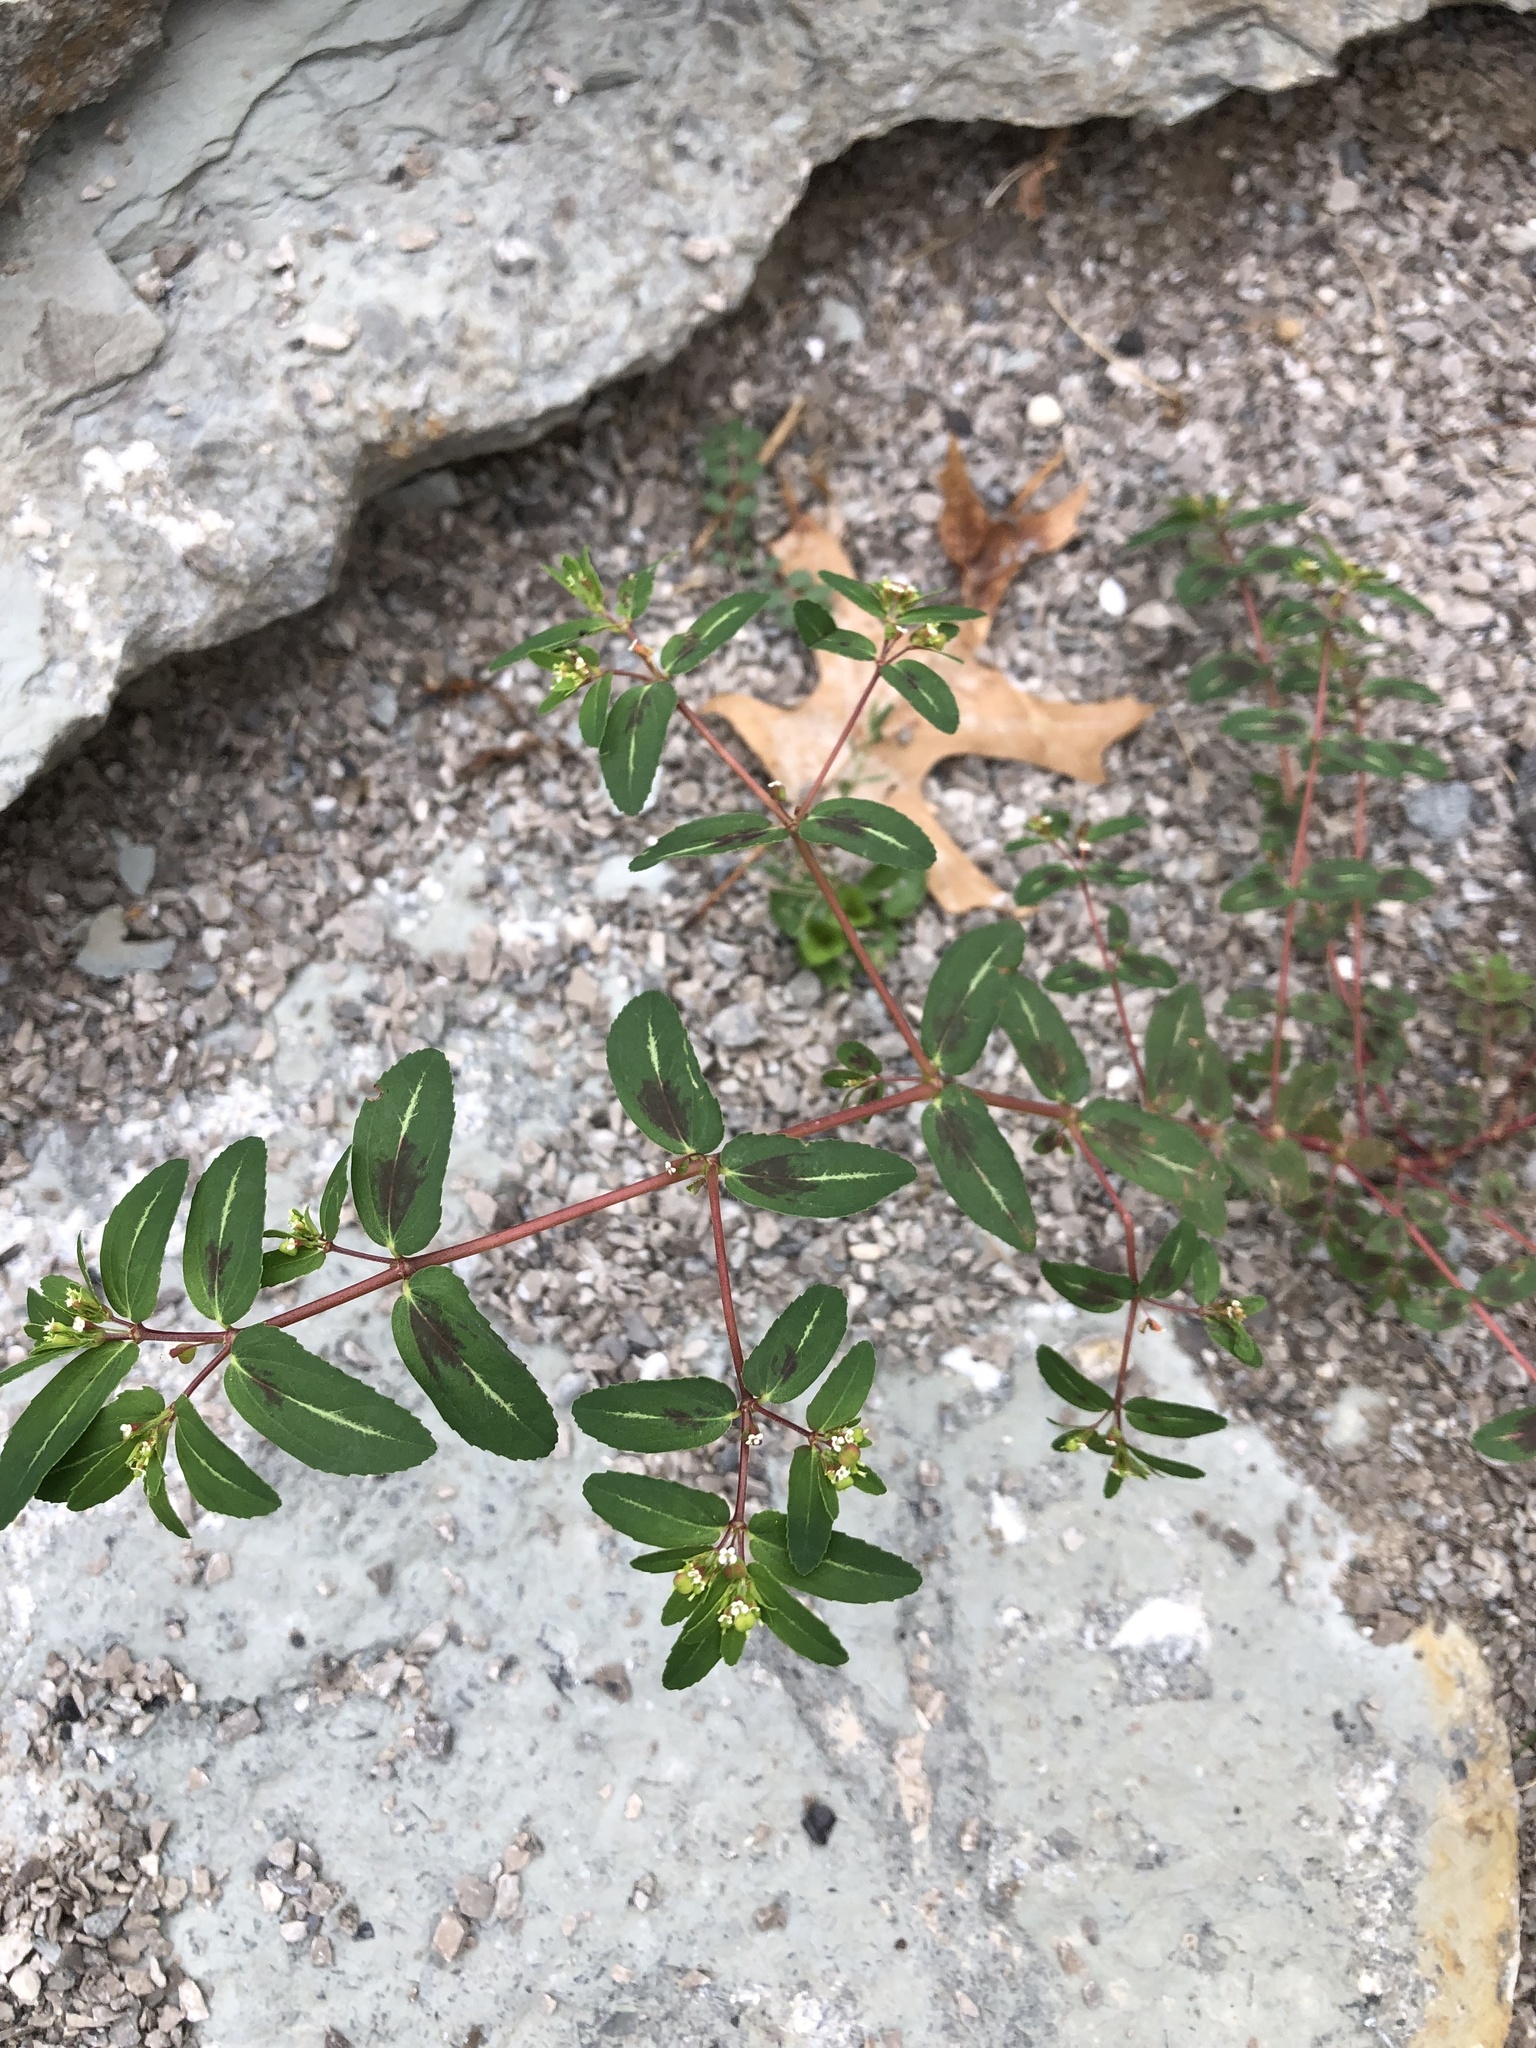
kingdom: Plantae
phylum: Tracheophyta
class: Magnoliopsida
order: Malpighiales
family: Euphorbiaceae
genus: Euphorbia
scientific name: Euphorbia nutans
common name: Eyebane
